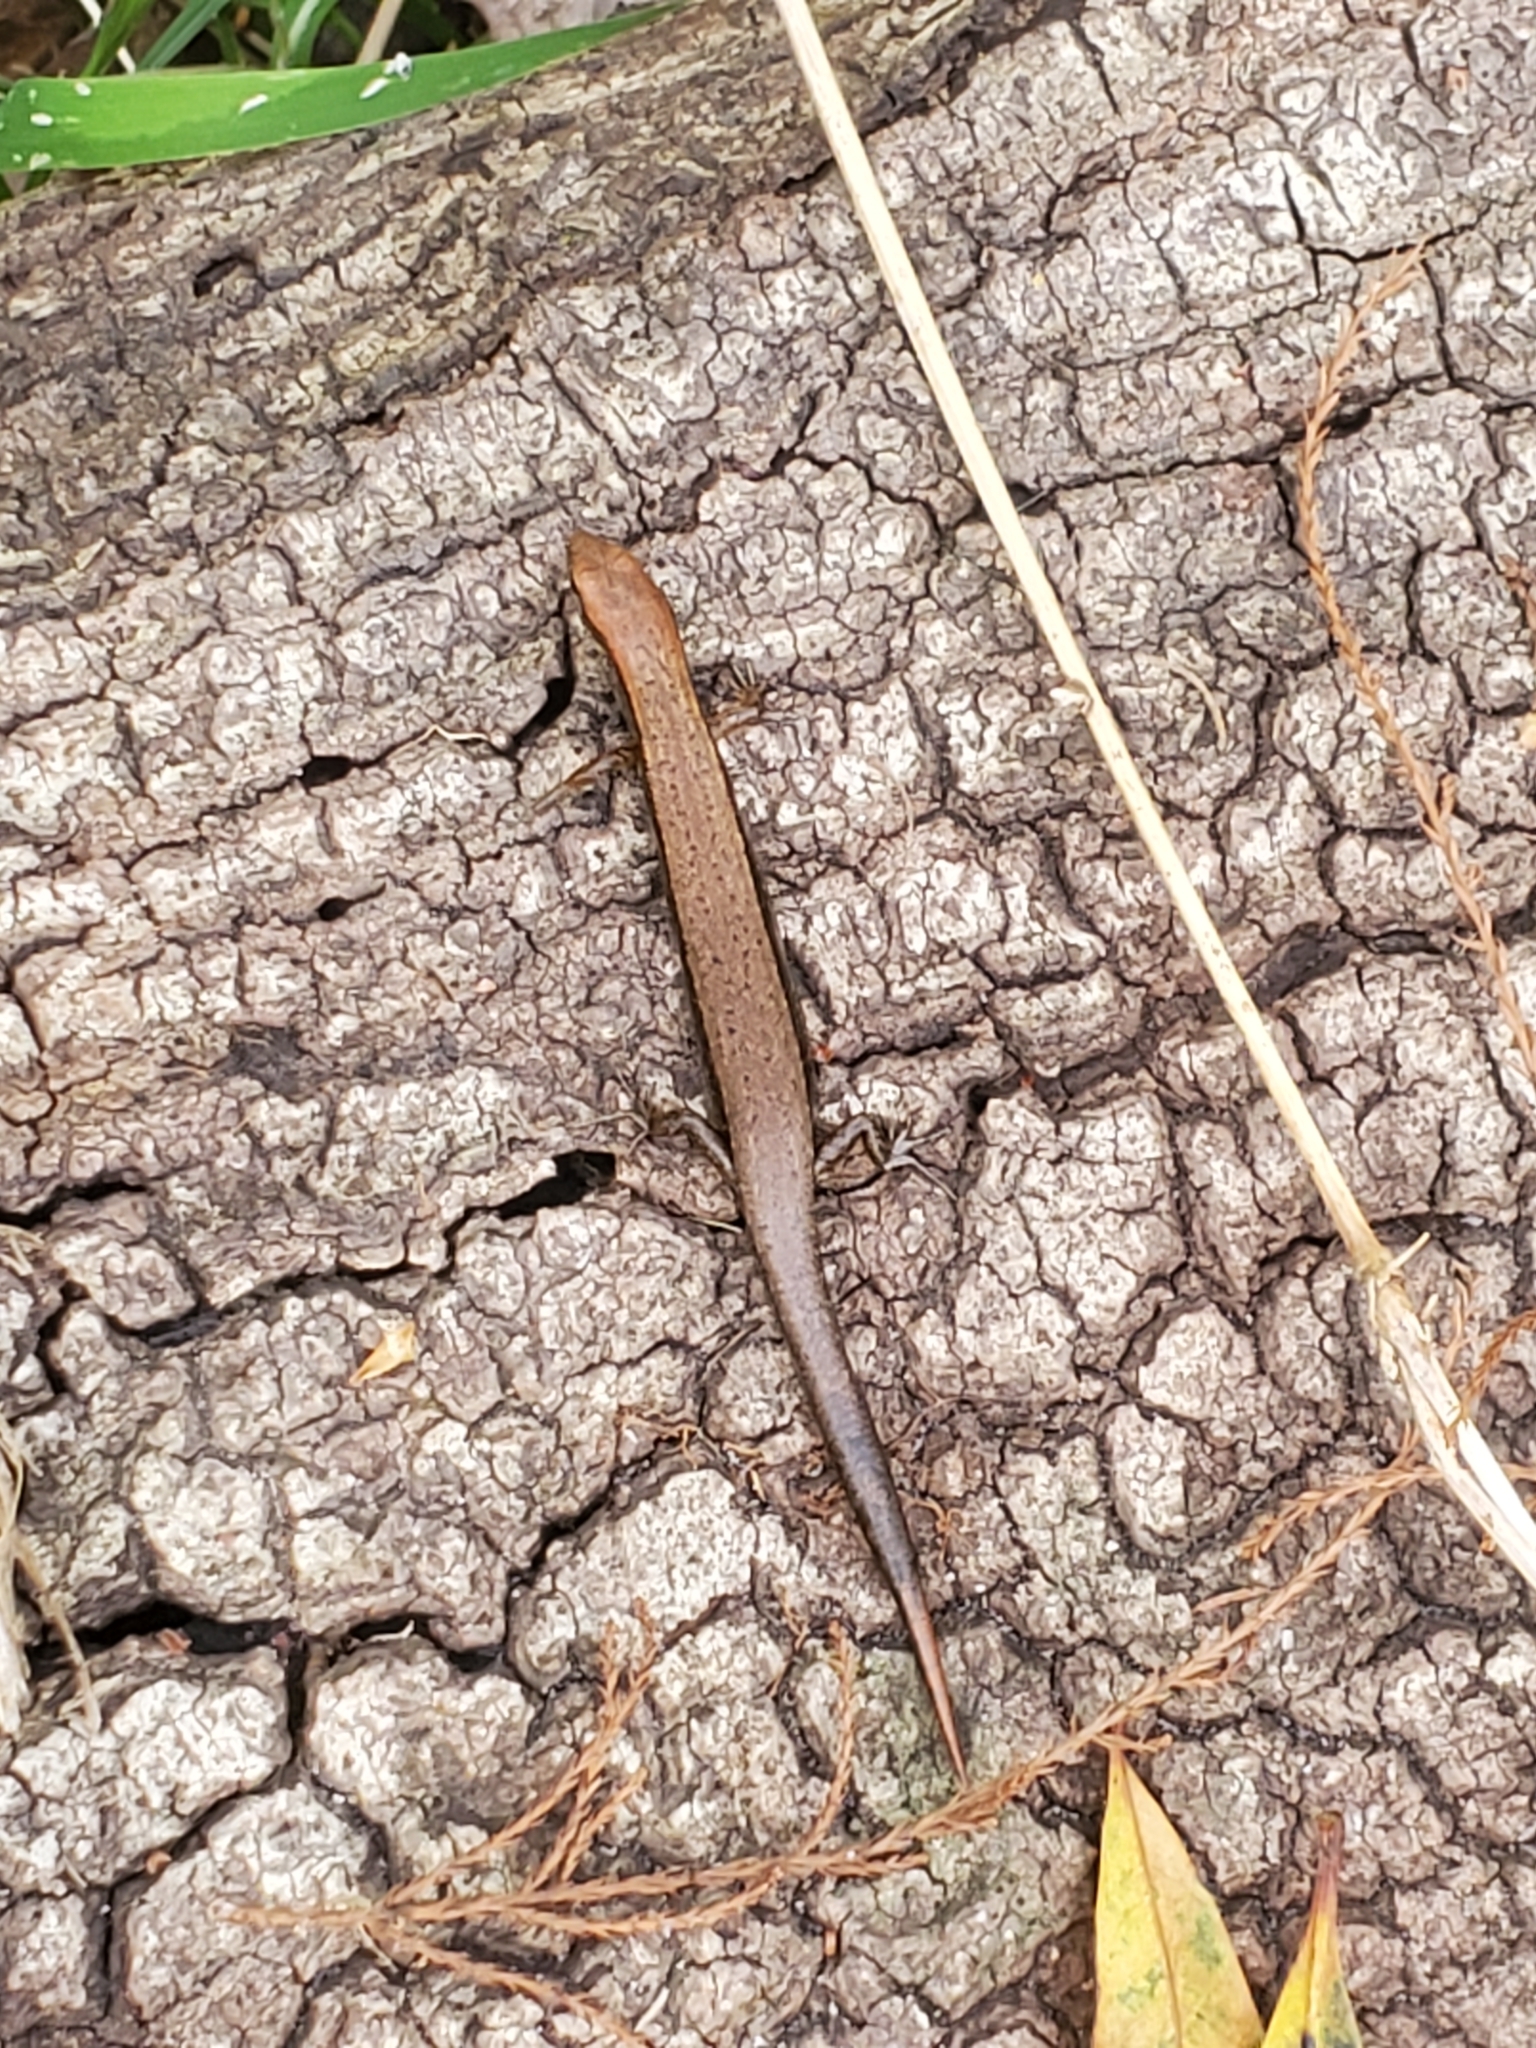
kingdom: Animalia
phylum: Chordata
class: Squamata
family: Scincidae
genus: Scincella
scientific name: Scincella lateralis
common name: Ground skink
